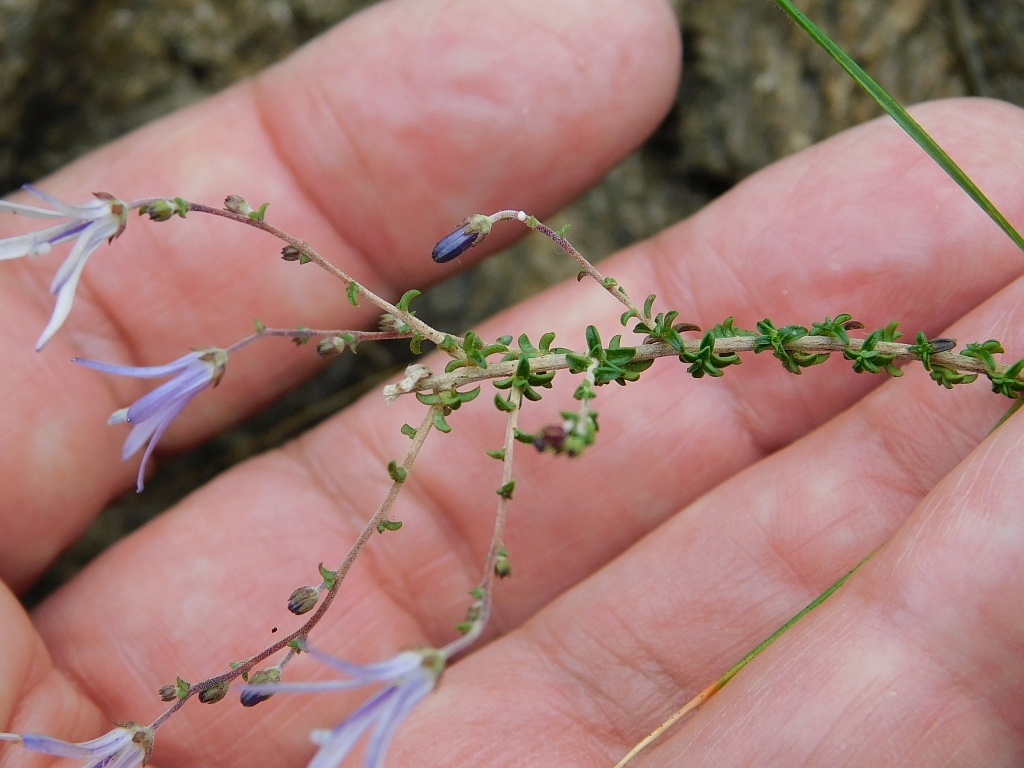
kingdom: Plantae
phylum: Tracheophyta
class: Magnoliopsida
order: Asterales
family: Campanulaceae
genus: Wahlenbergia
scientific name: Wahlenbergia tenella
